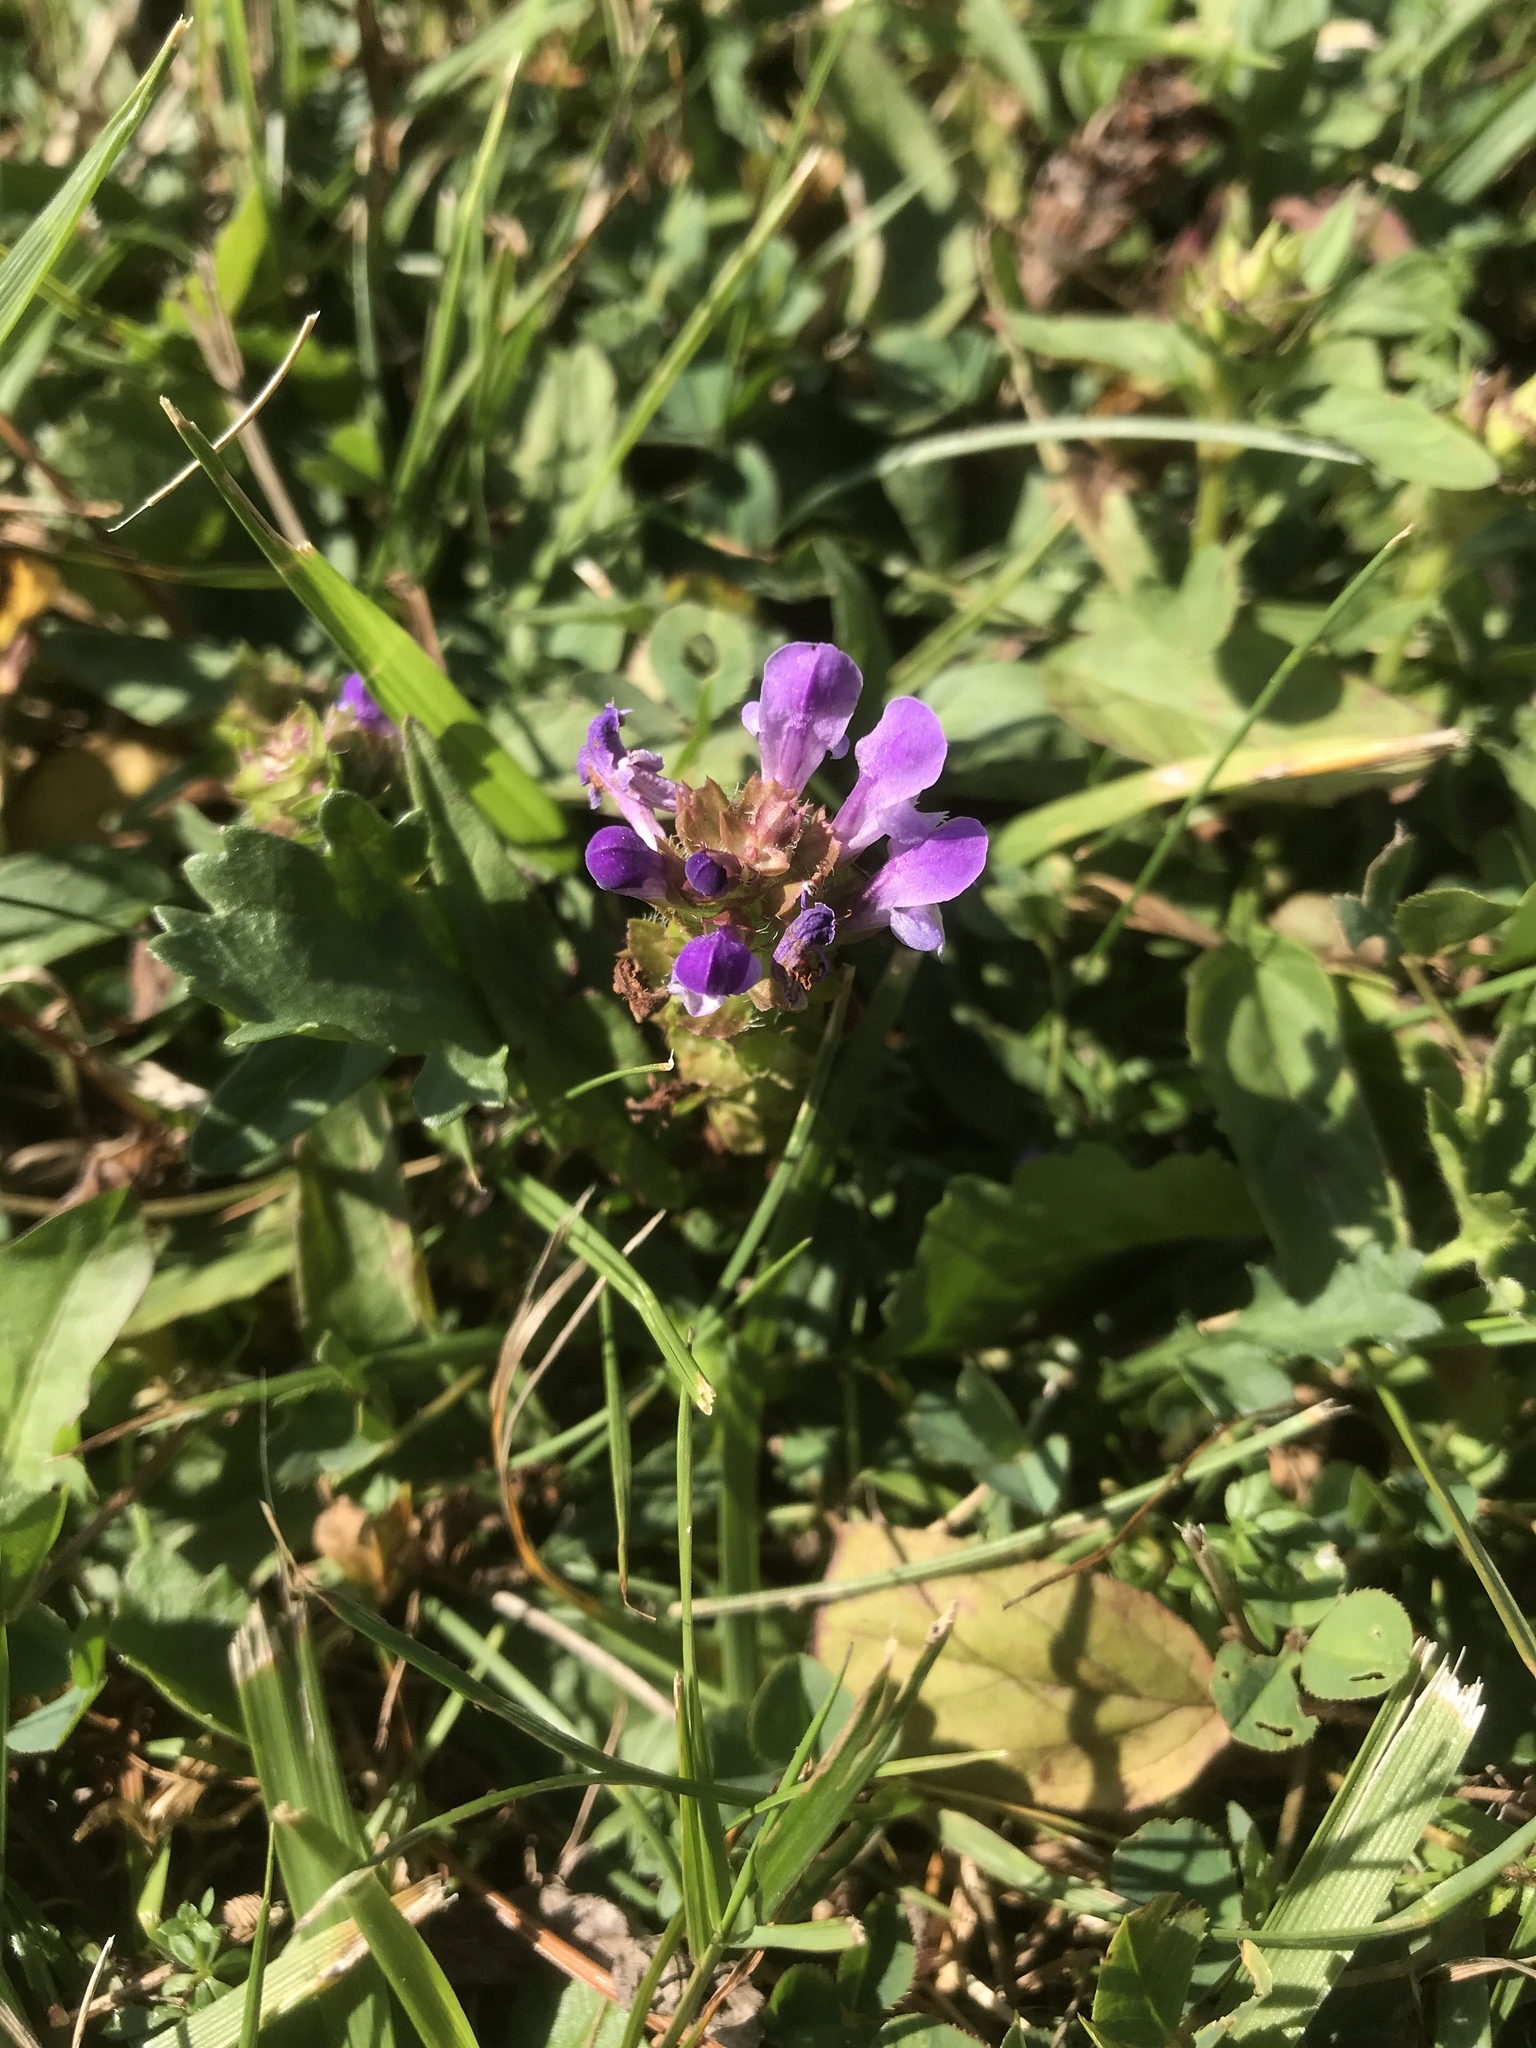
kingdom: Plantae
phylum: Tracheophyta
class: Magnoliopsida
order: Lamiales
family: Lamiaceae
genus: Prunella
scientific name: Prunella vulgaris
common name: Heal-all
